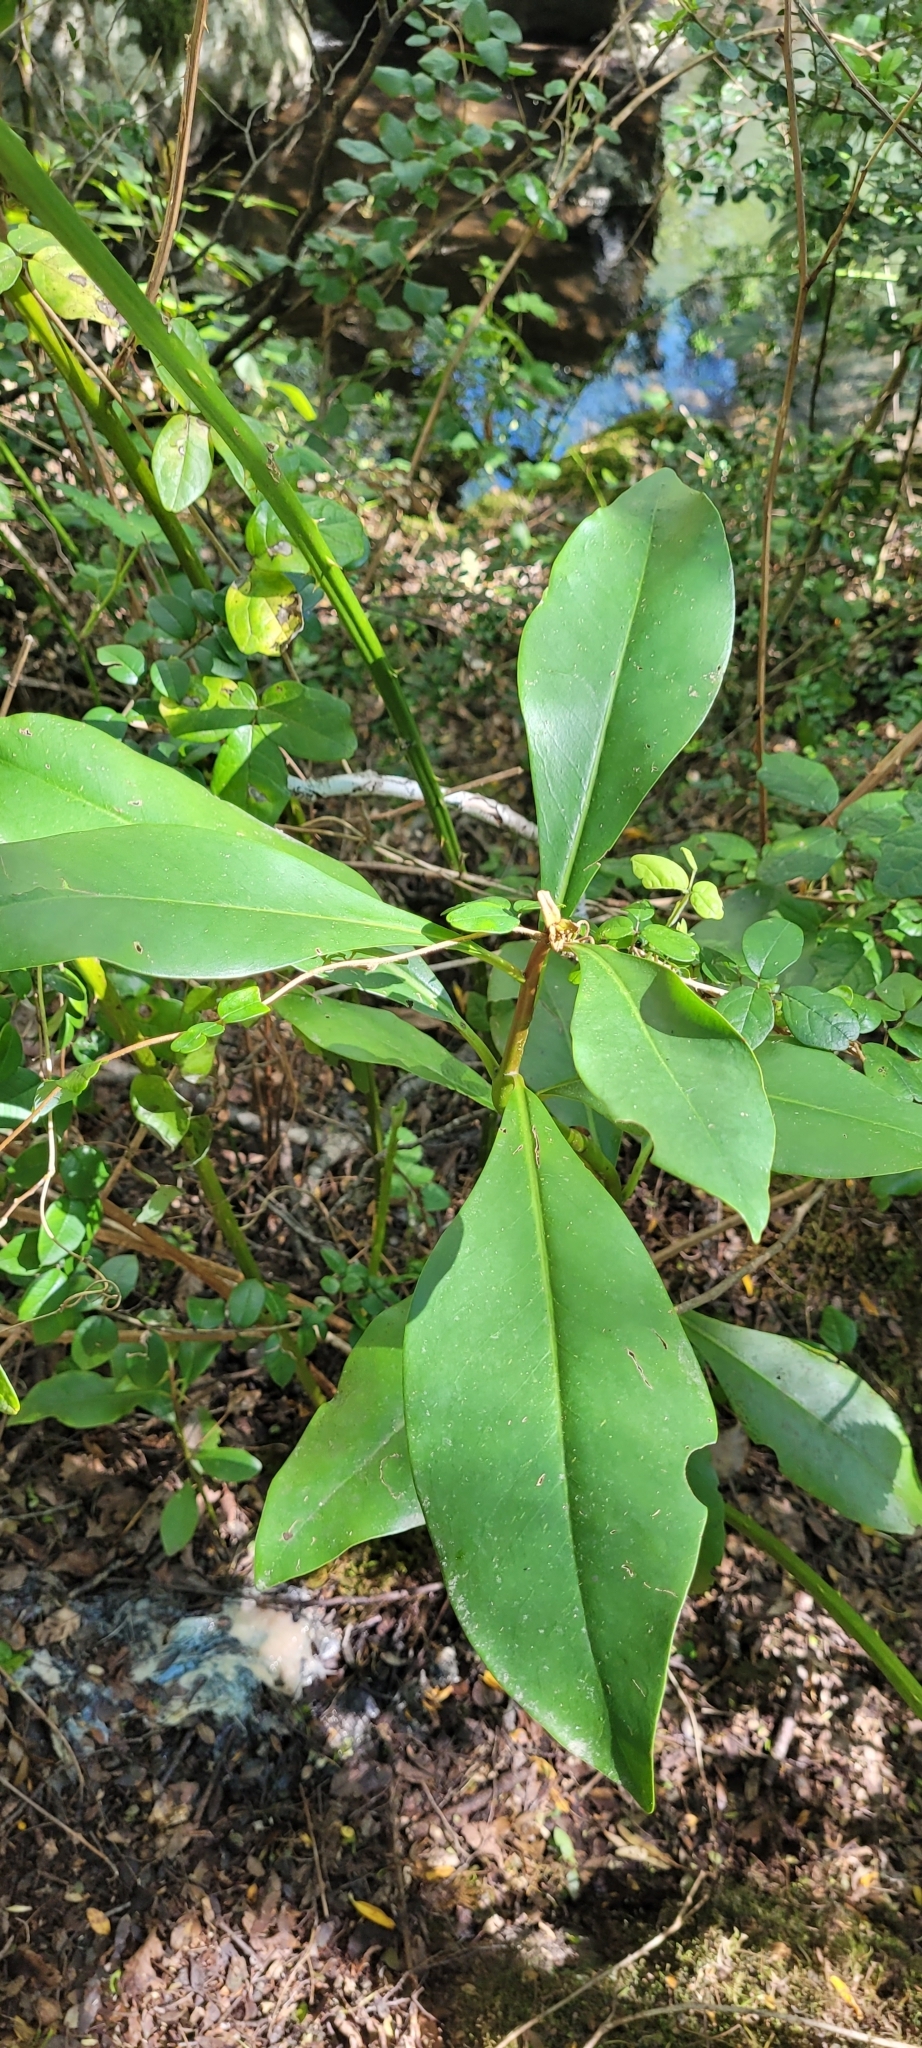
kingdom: Plantae
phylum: Tracheophyta
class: Magnoliopsida
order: Canellales
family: Winteraceae
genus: Drimys
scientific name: Drimys winteri
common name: Winter's-bark
